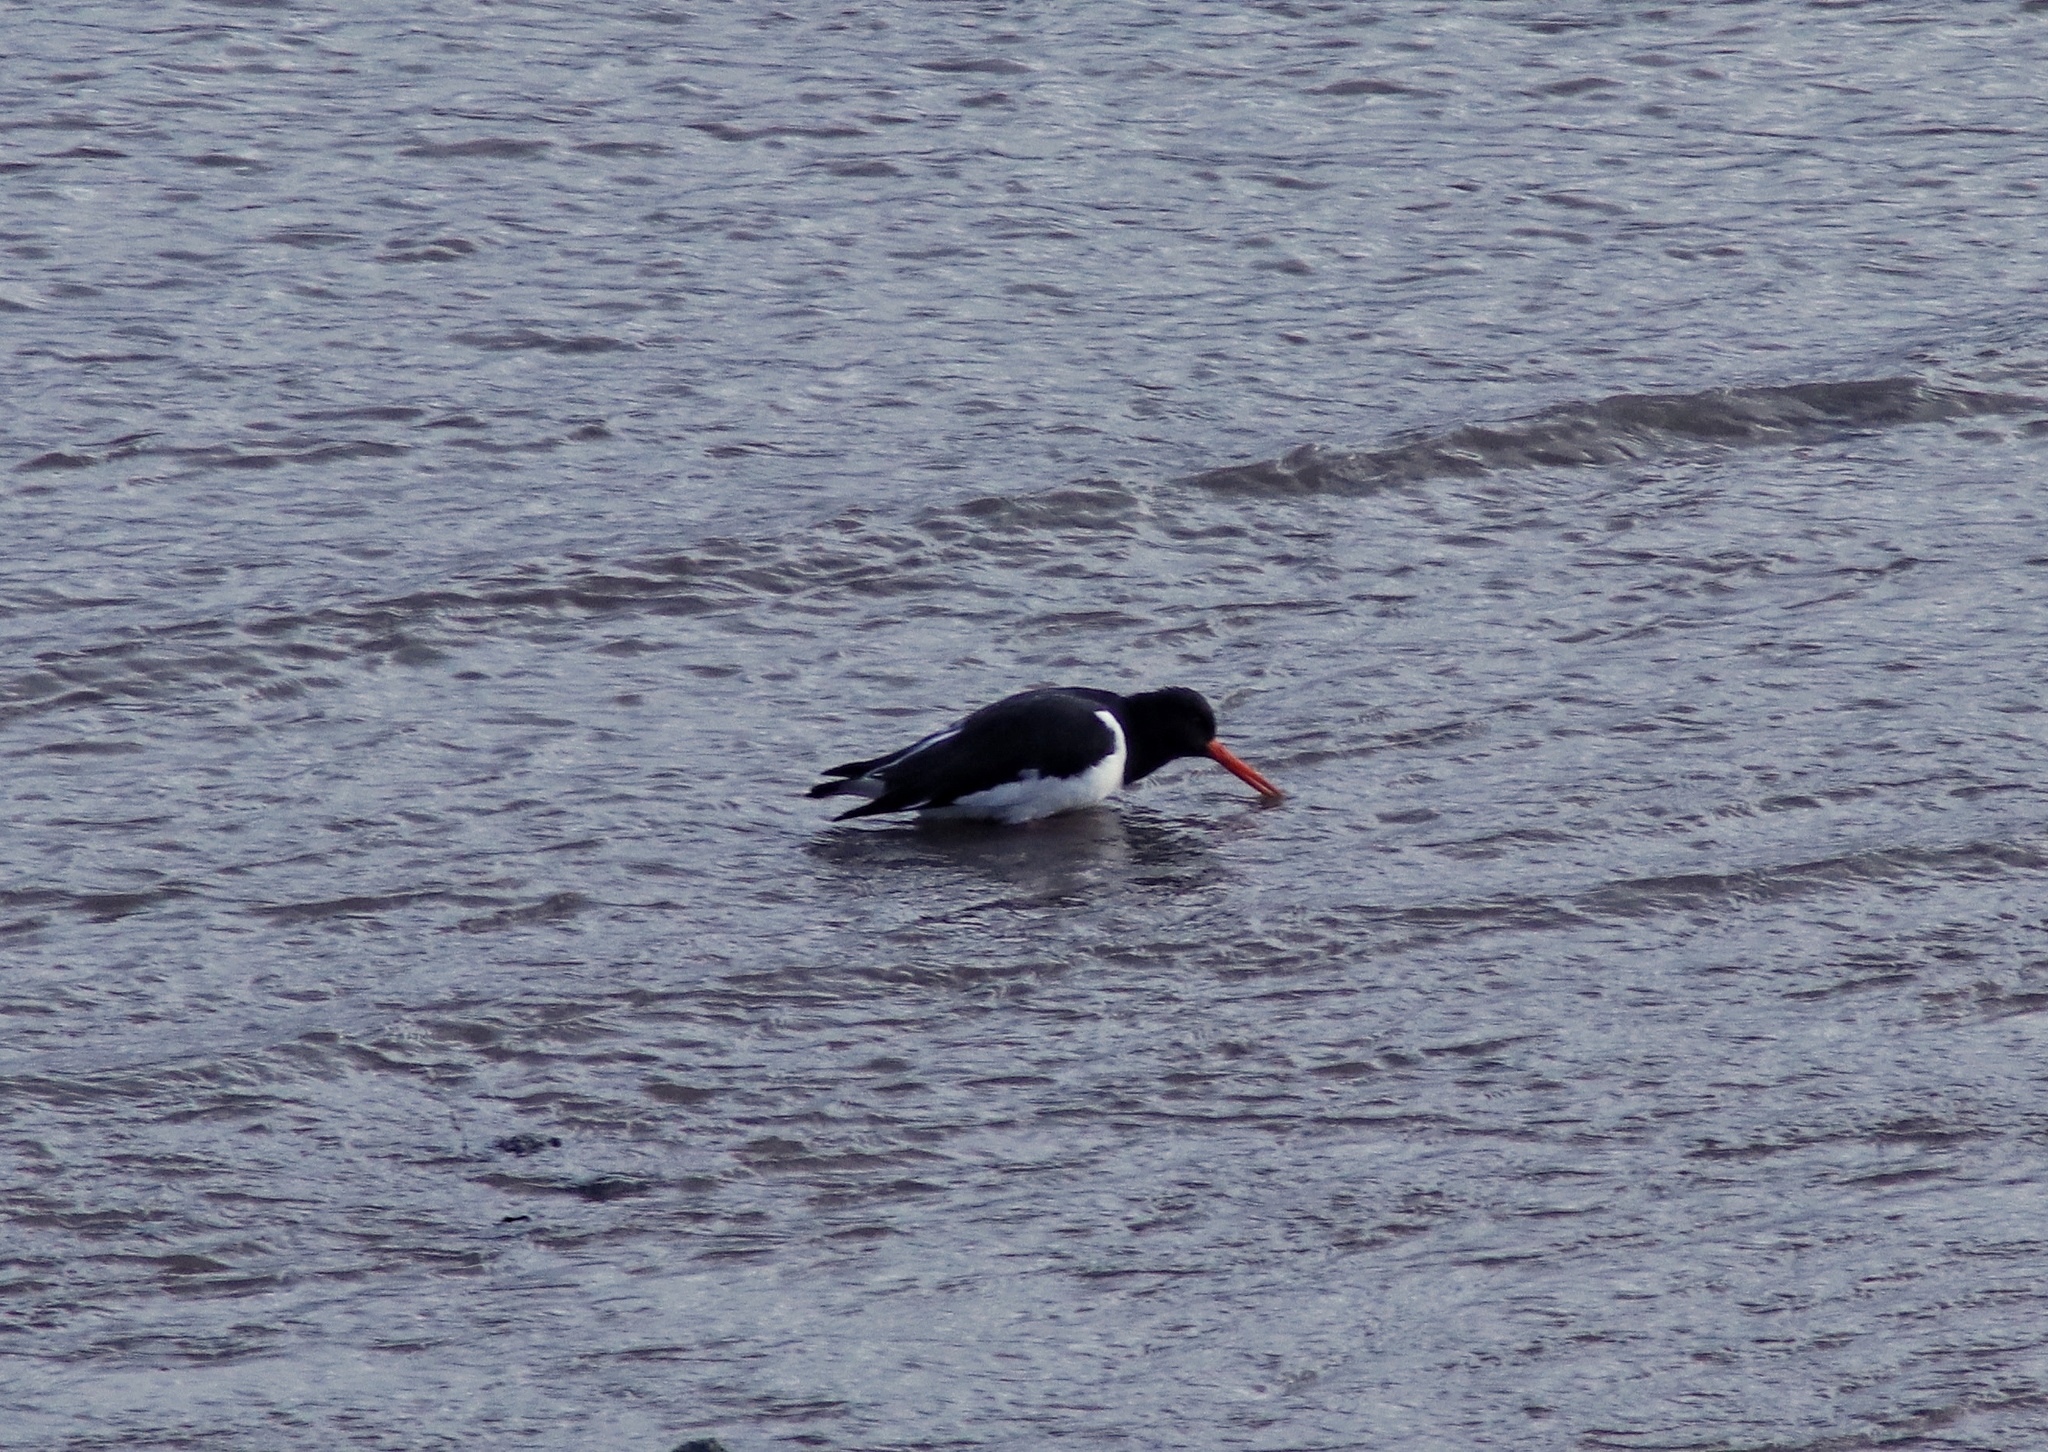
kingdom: Animalia
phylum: Chordata
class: Aves
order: Charadriiformes
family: Haematopodidae
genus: Haematopus
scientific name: Haematopus ostralegus
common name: Eurasian oystercatcher
